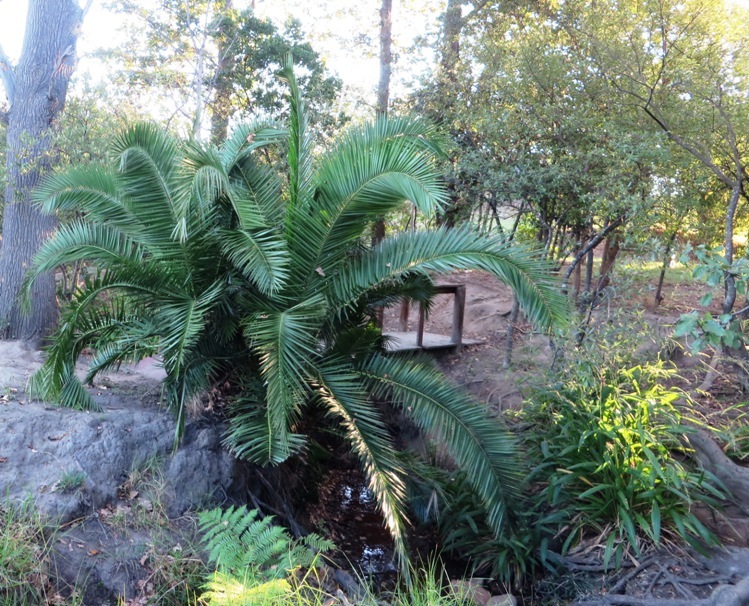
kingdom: Plantae
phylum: Tracheophyta
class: Liliopsida
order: Arecales
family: Arecaceae
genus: Phoenix
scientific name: Phoenix reclinata
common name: Senegal date palm
